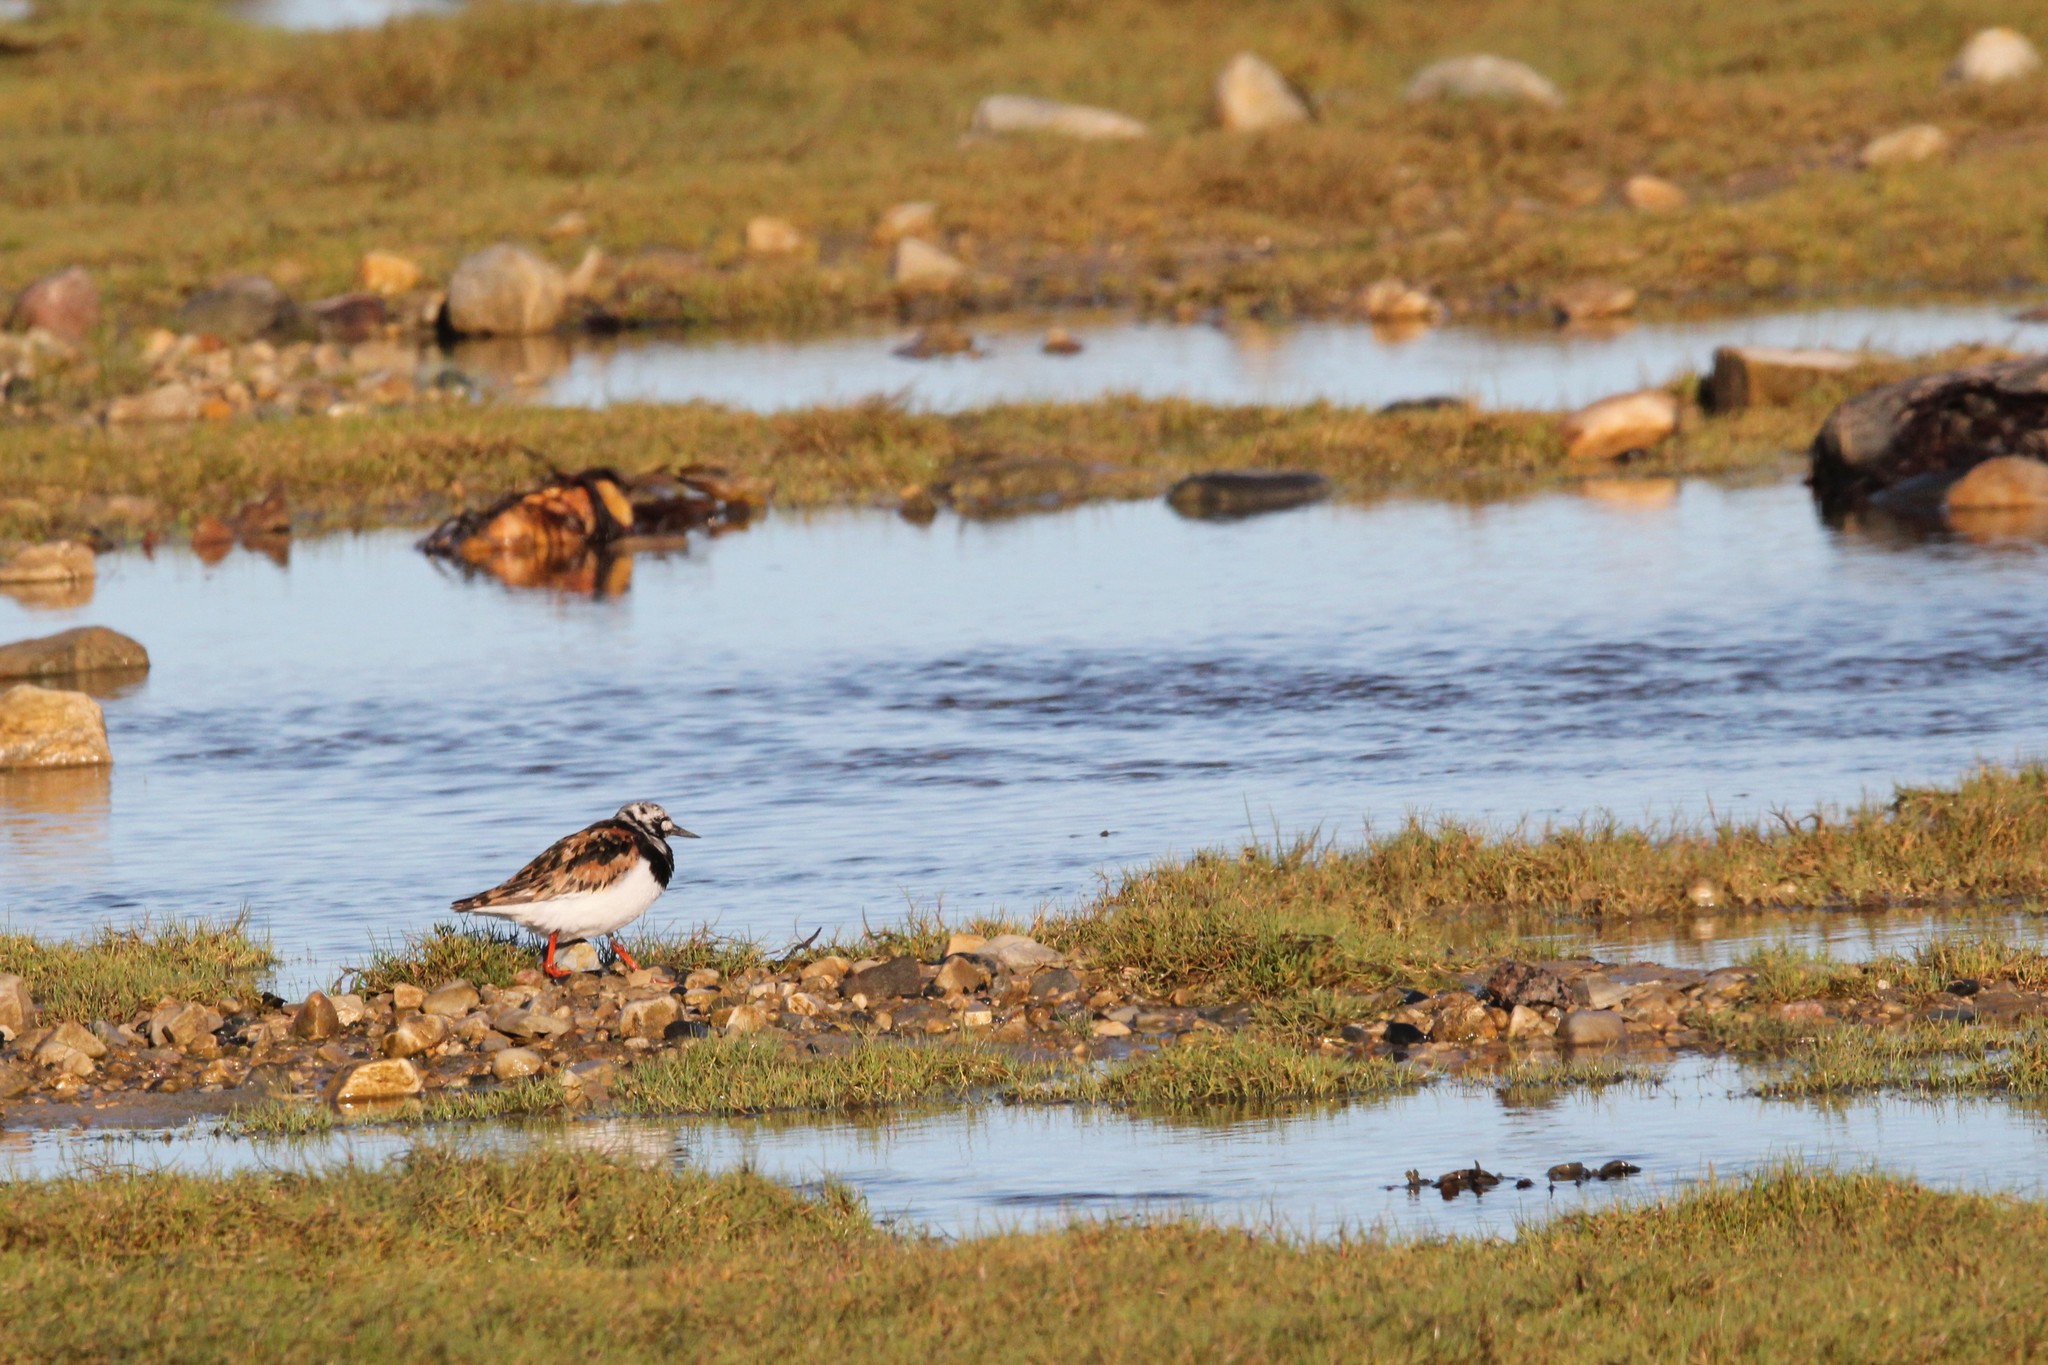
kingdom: Animalia
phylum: Chordata
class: Aves
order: Charadriiformes
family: Scolopacidae
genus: Arenaria
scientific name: Arenaria interpres
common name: Ruddy turnstone
